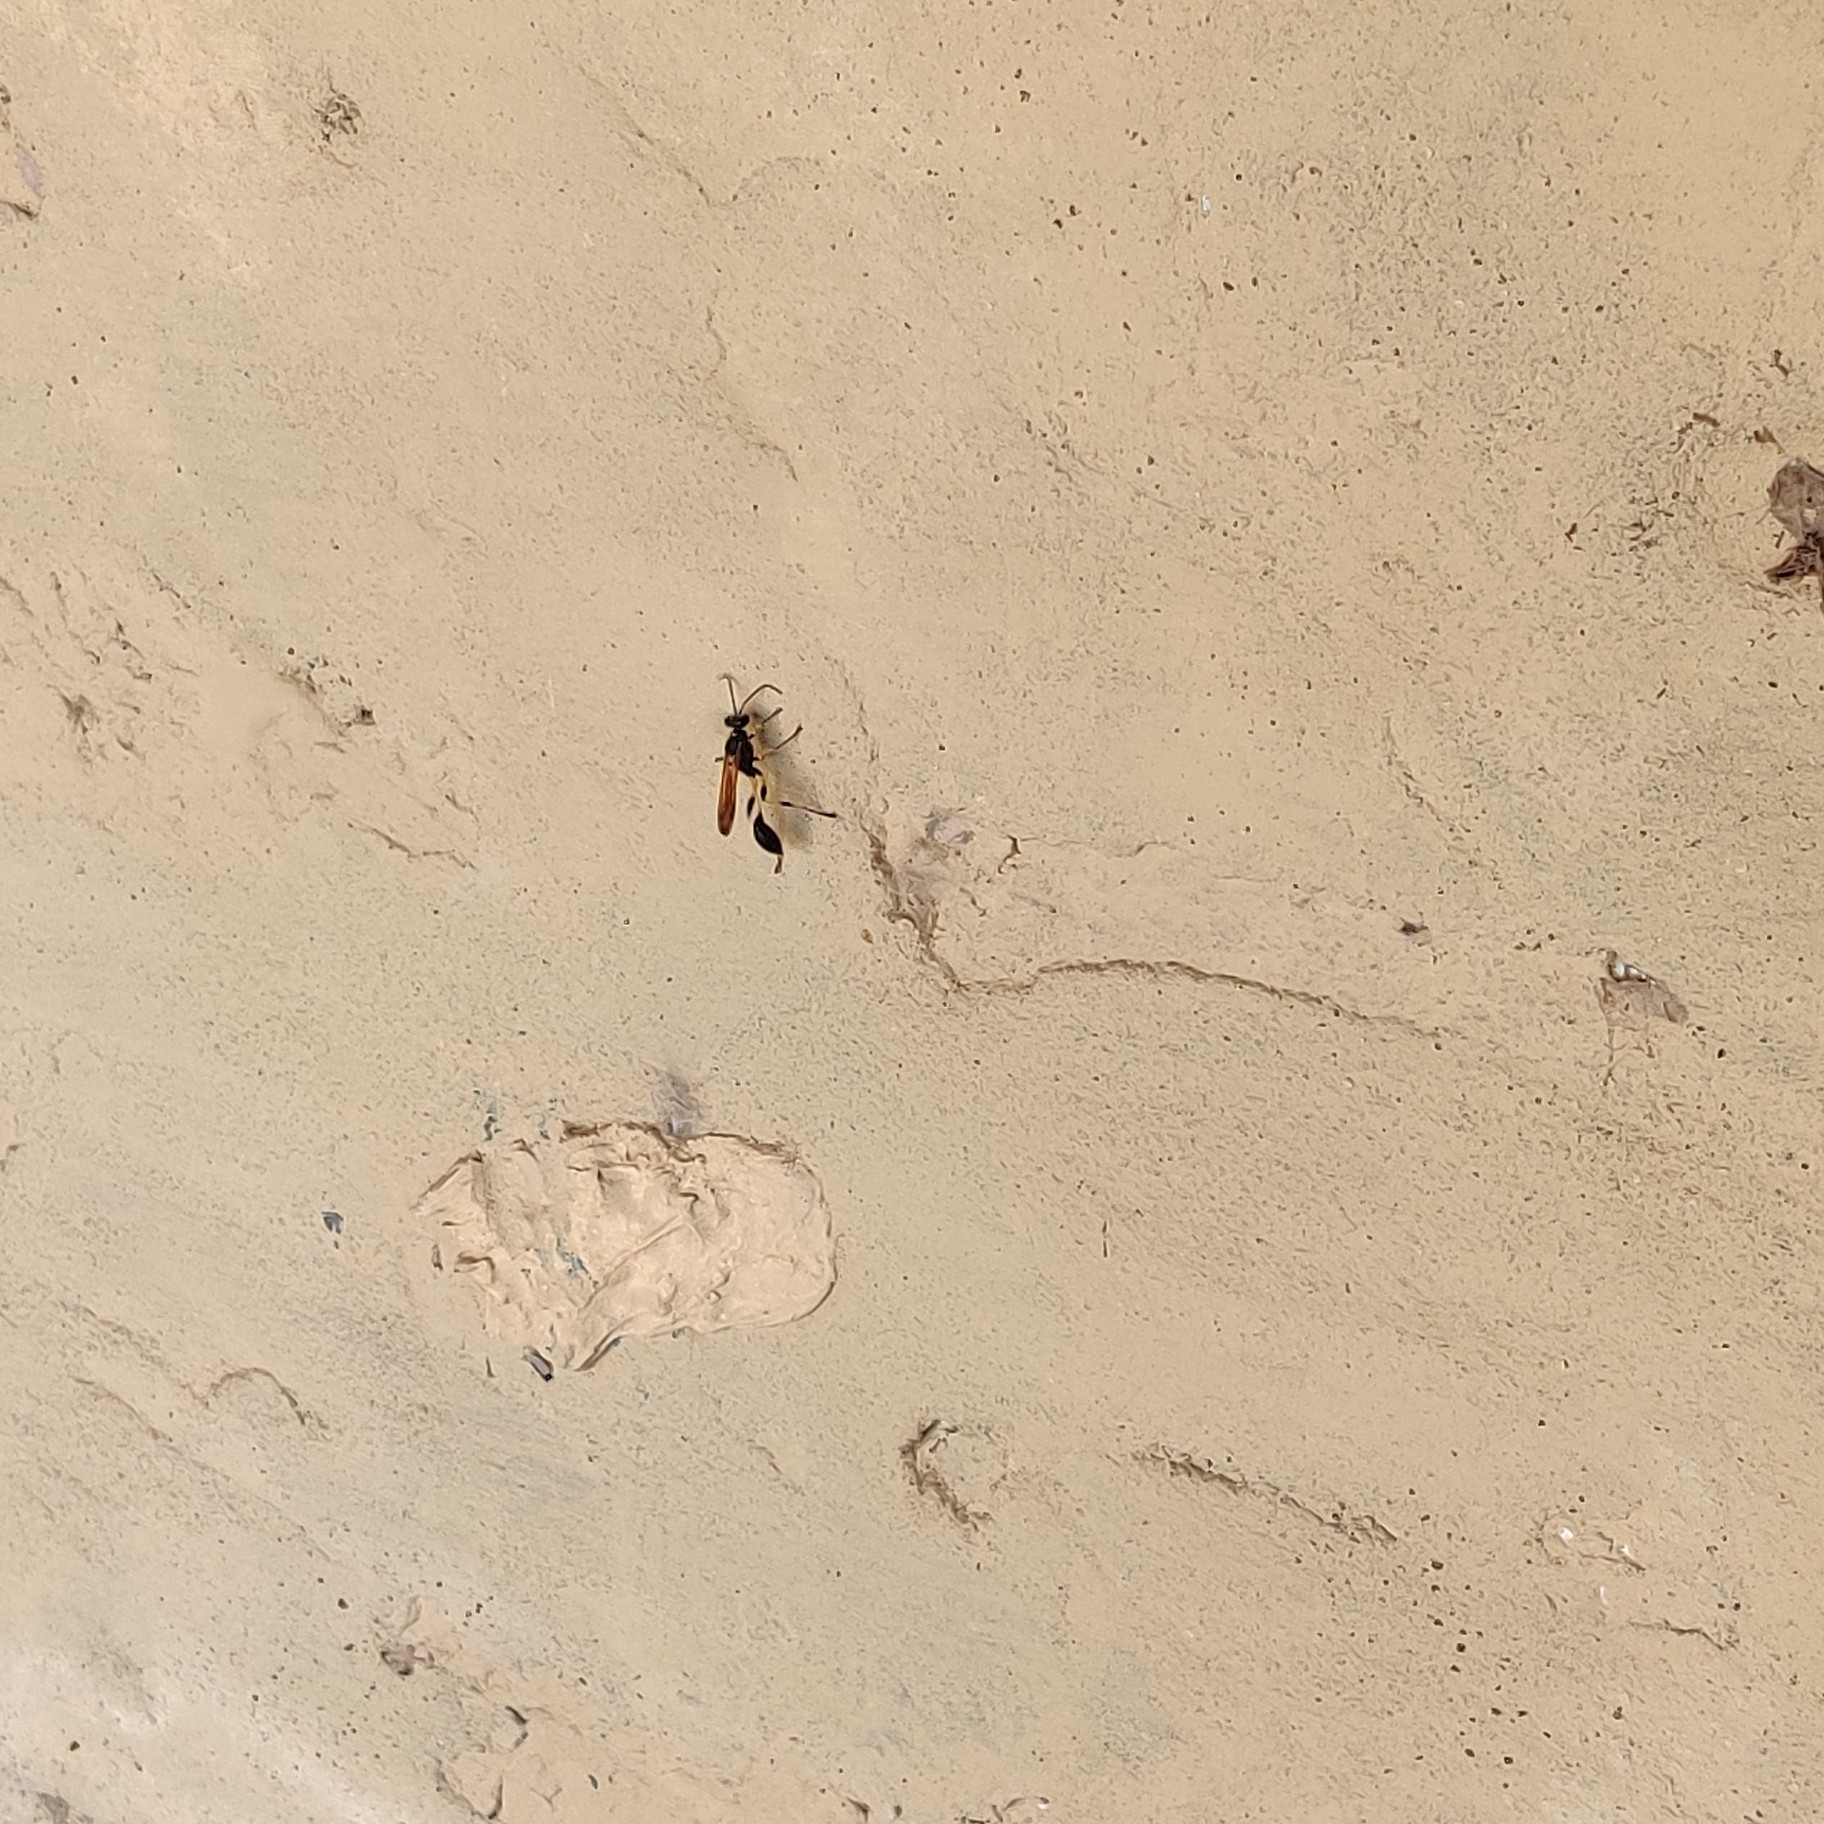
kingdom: Animalia
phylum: Arthropoda
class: Insecta
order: Hymenoptera
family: Sphecidae
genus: Sceliphron
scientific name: Sceliphron madraspatanum
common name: Mud dauber
